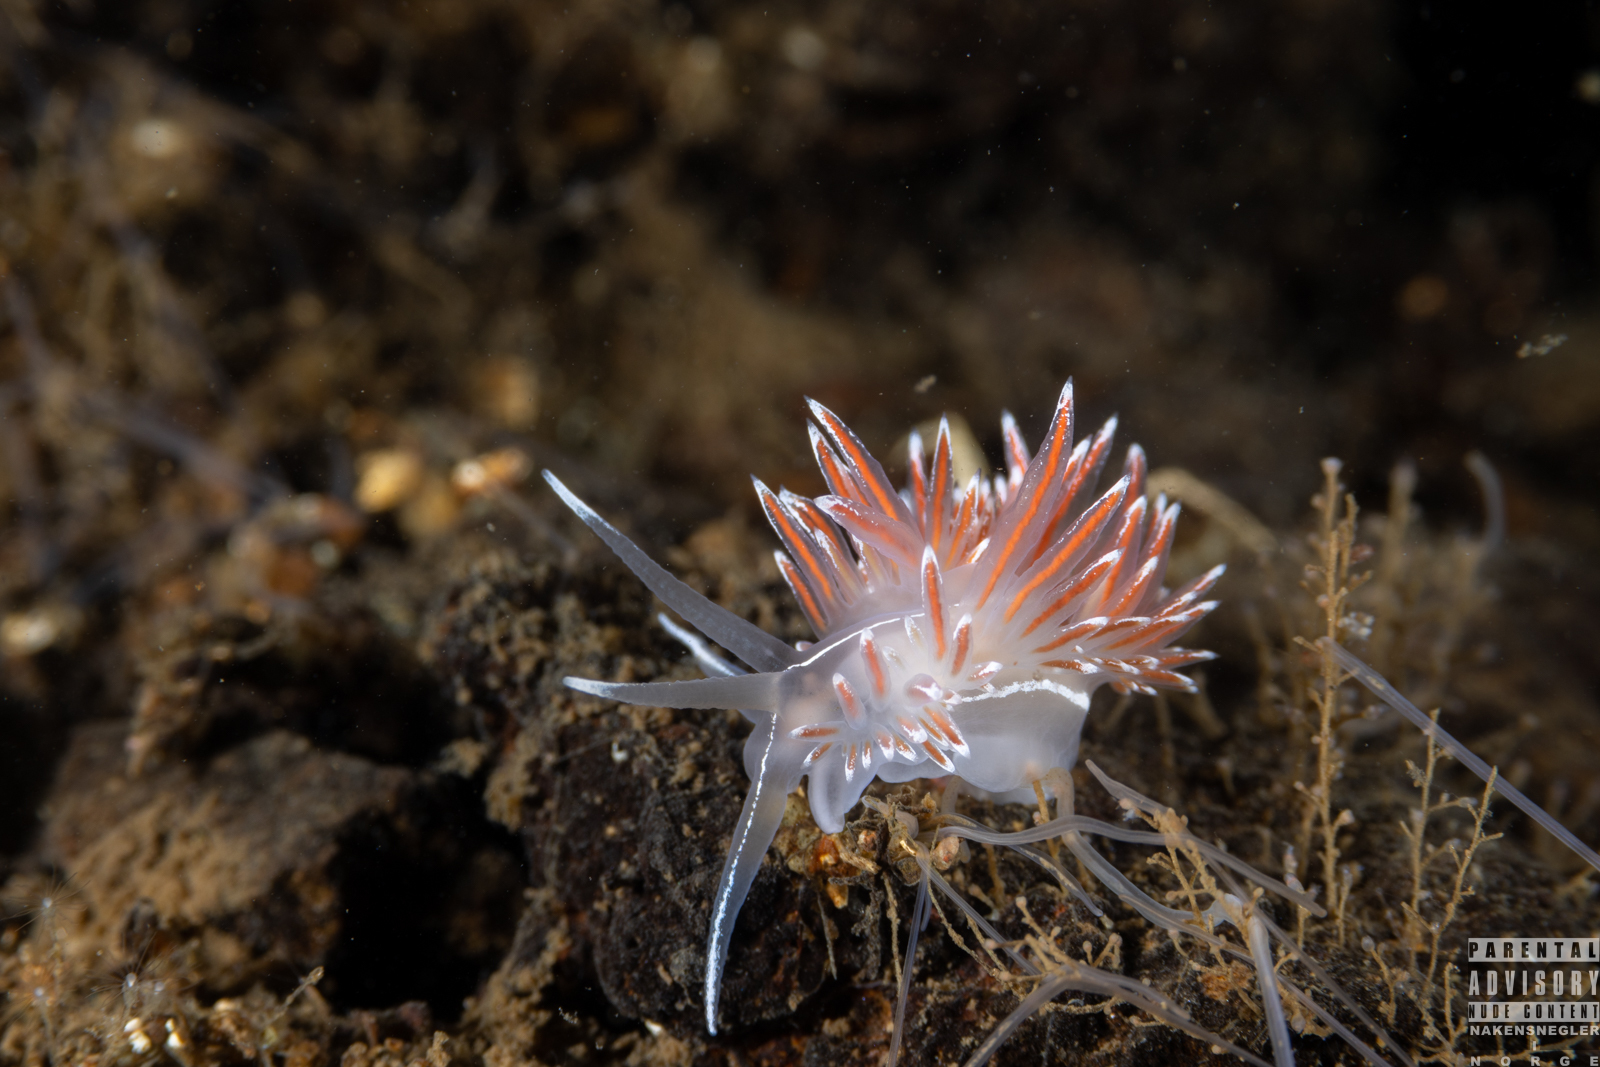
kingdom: Animalia
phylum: Mollusca
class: Gastropoda
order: Nudibranchia
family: Coryphellidae
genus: Coryphella
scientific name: Coryphella lineata
